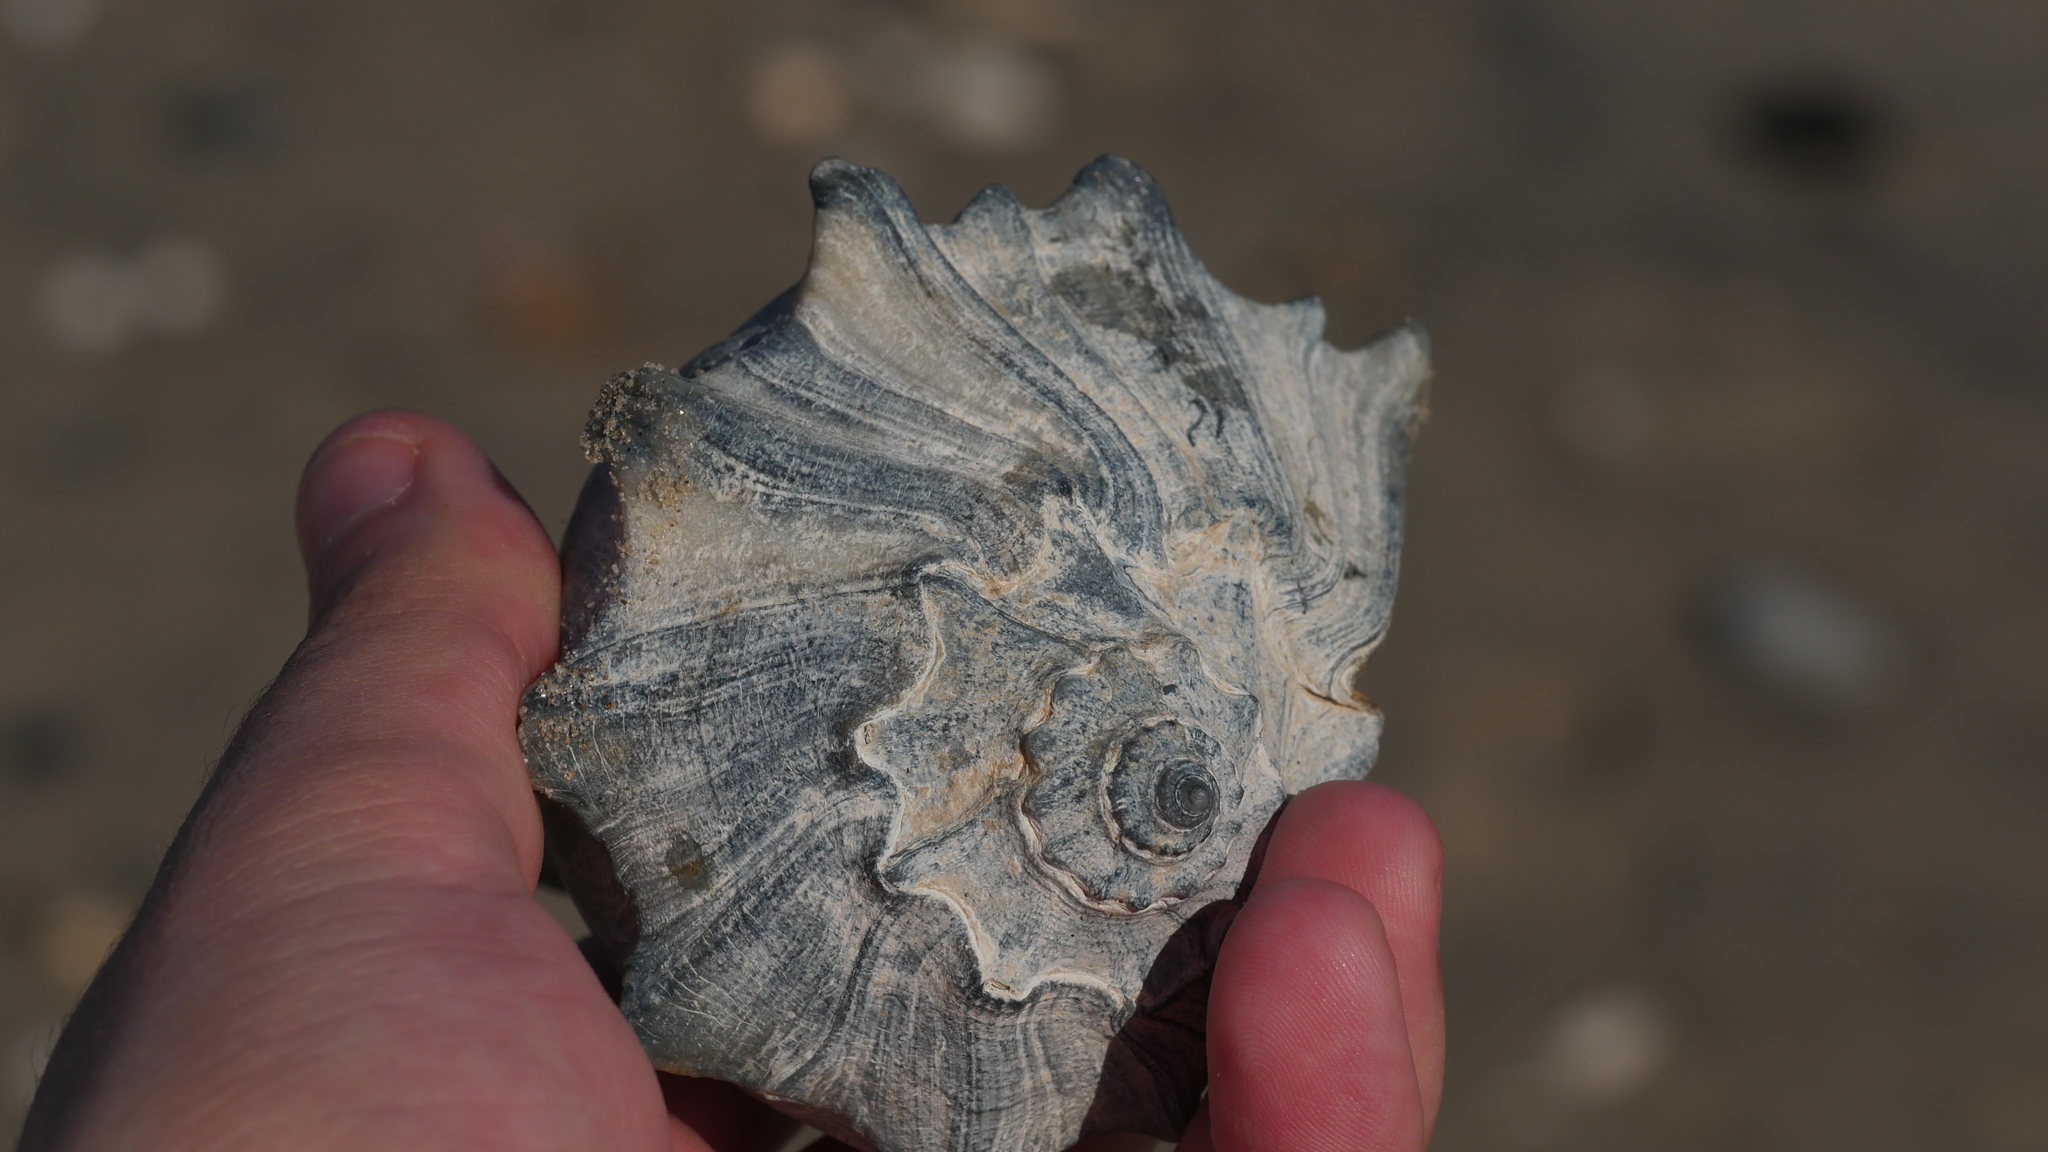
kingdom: Animalia
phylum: Mollusca
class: Gastropoda
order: Neogastropoda
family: Busyconidae
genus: Busycon
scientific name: Busycon carica
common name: Knobbed whelk
